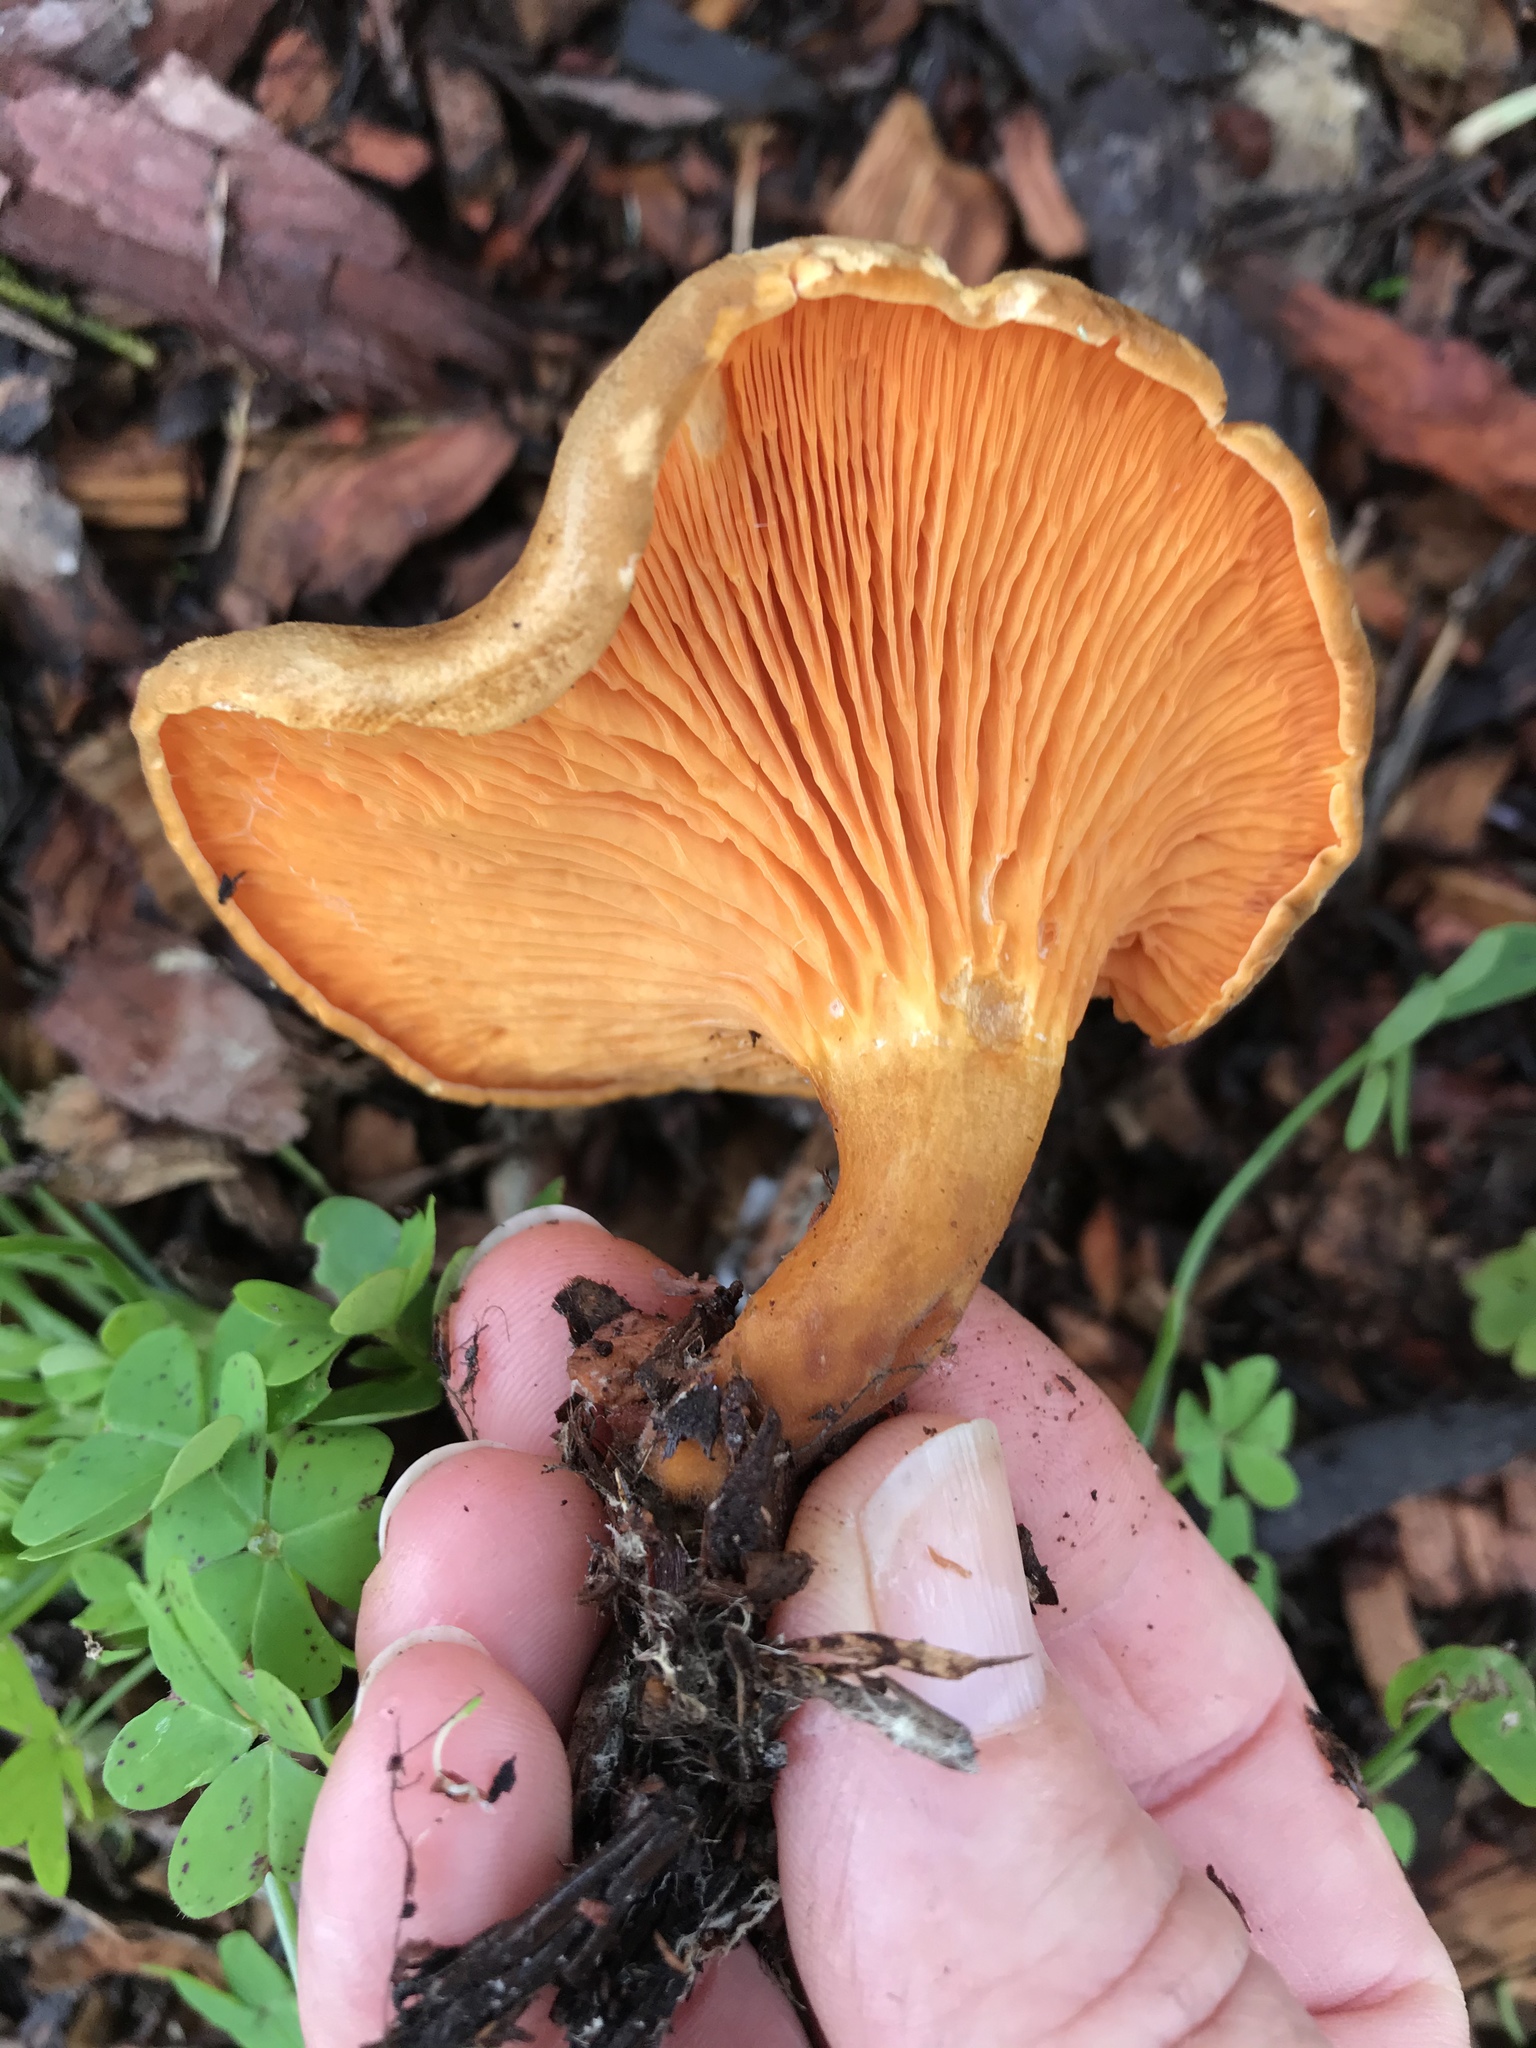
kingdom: Fungi
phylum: Basidiomycota
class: Agaricomycetes
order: Boletales
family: Hygrophoropsidaceae
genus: Hygrophoropsis
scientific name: Hygrophoropsis aurantiaca
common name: False chanterelle
